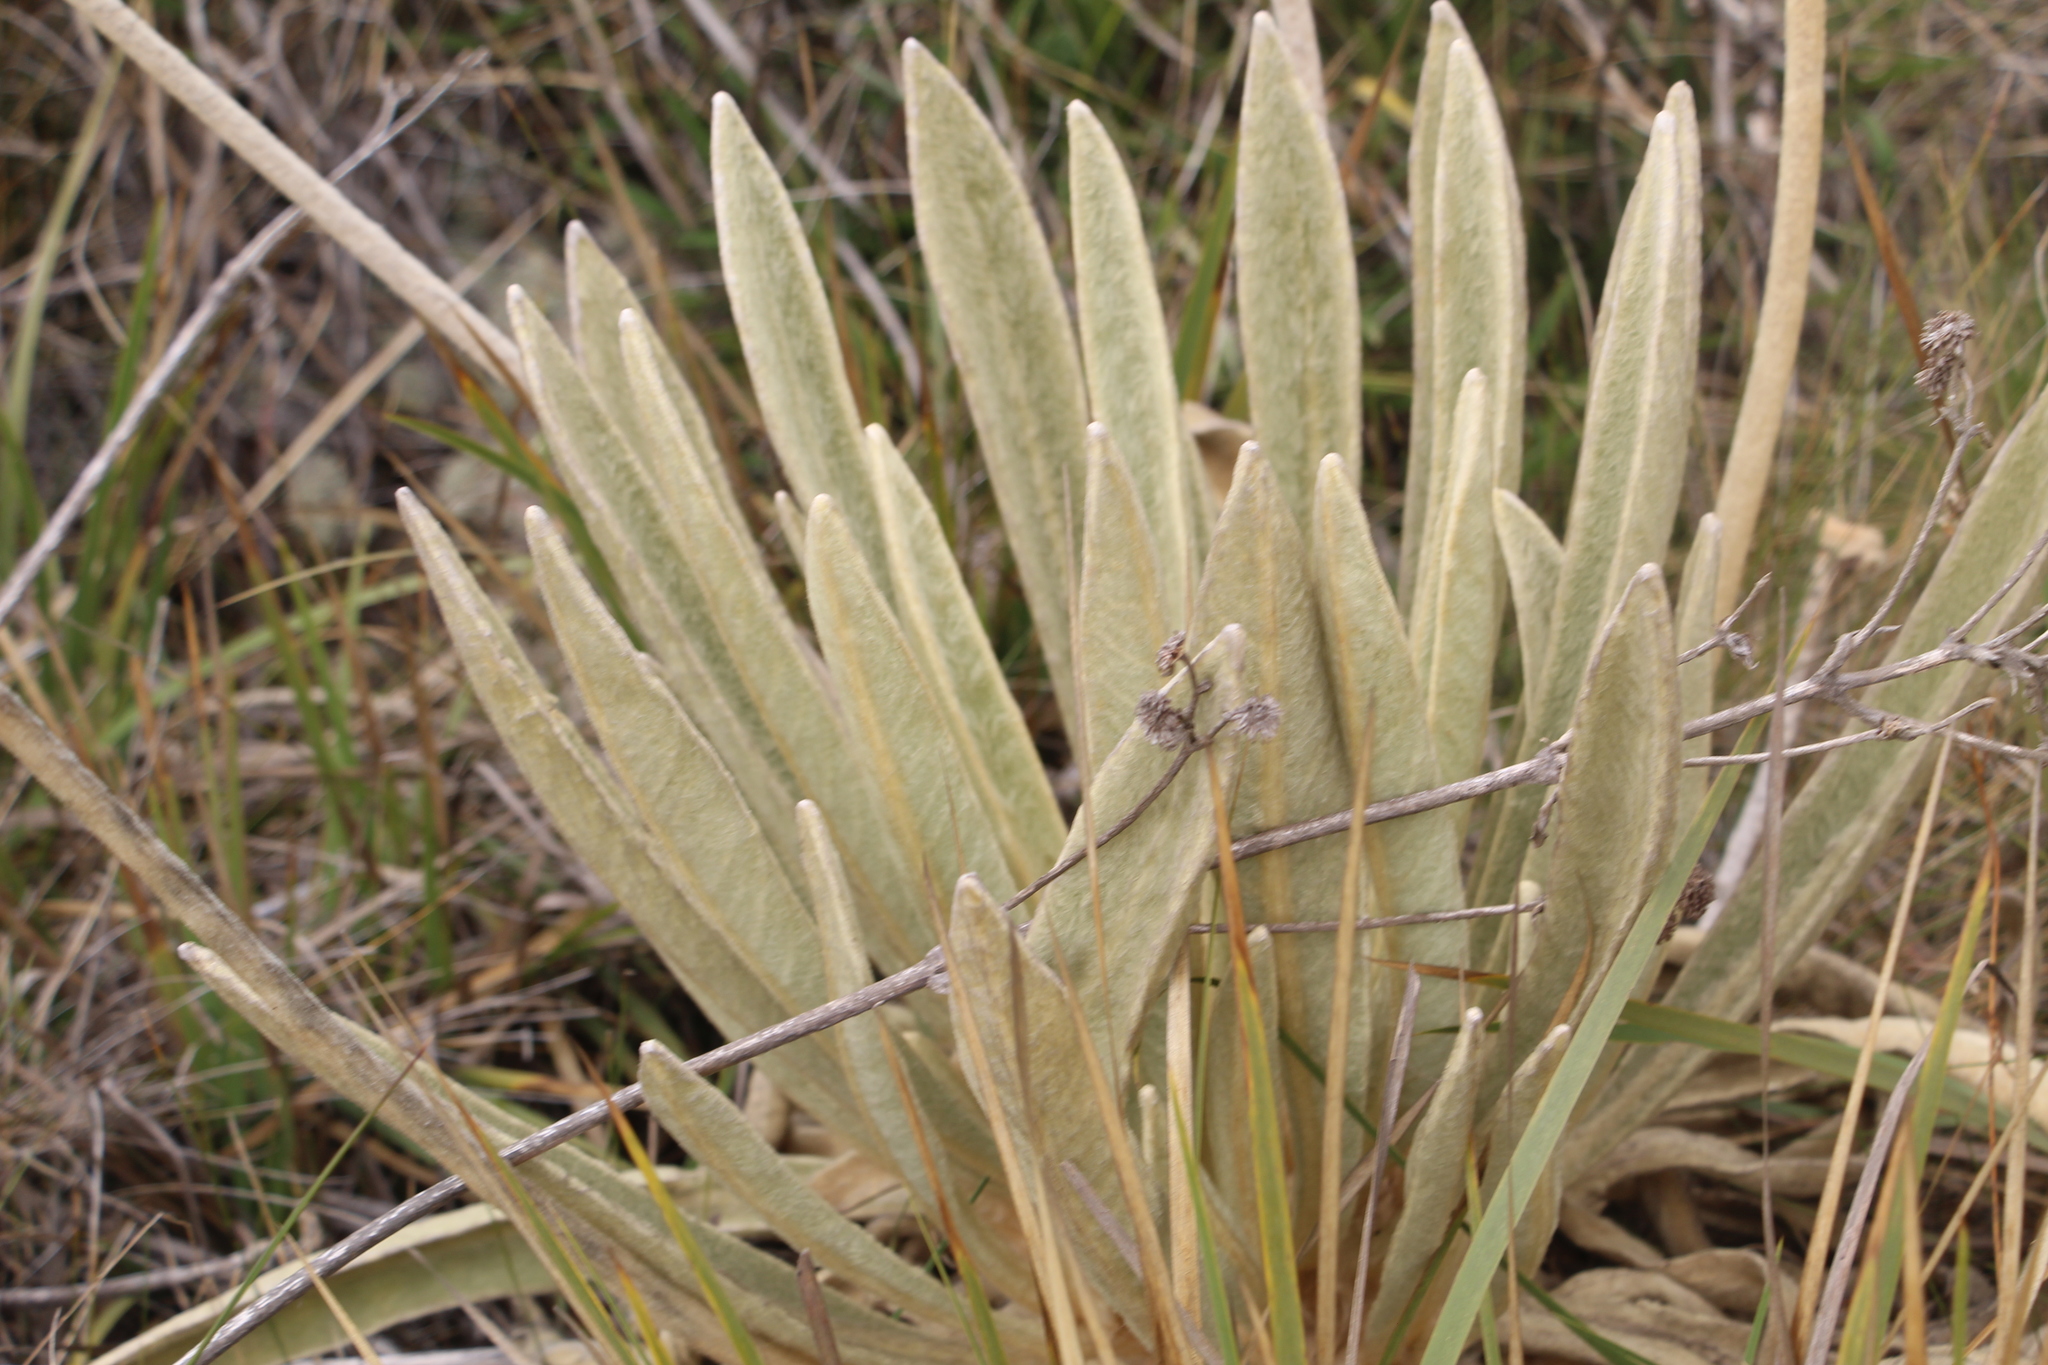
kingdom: Plantae
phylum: Tracheophyta
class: Magnoliopsida
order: Asterales
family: Asteraceae
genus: Espeletia
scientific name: Espeletia congestiflora
